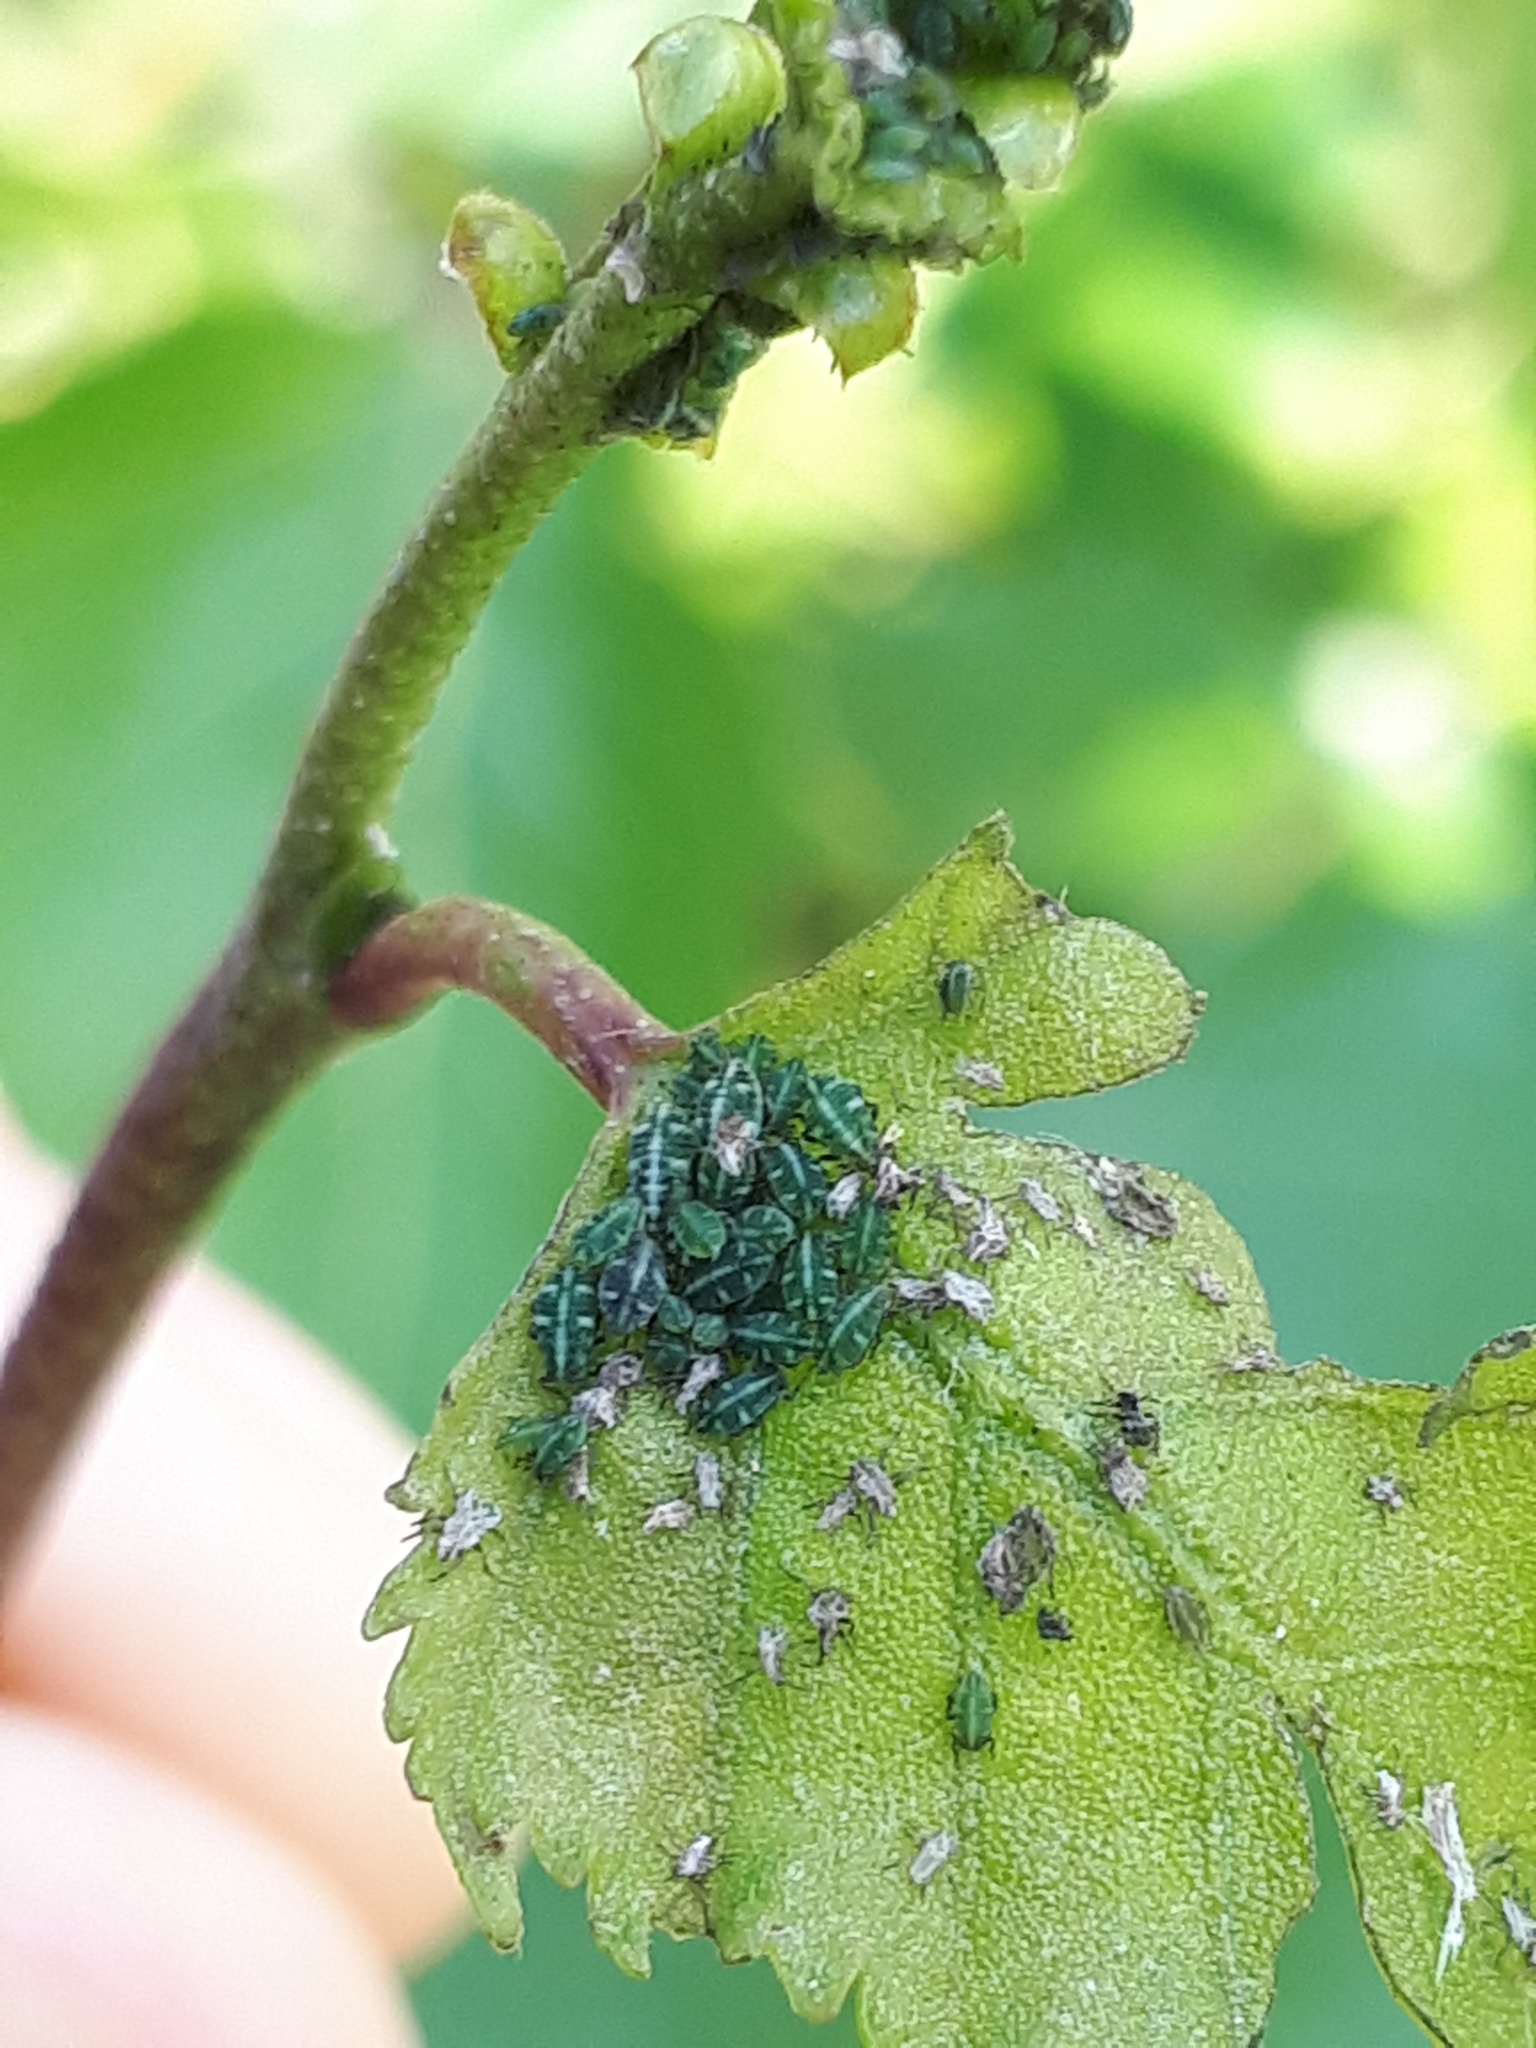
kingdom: Animalia
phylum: Arthropoda
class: Insecta
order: Hemiptera
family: Aphididae
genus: Glyphina
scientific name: Glyphina betulae
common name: Aphid
